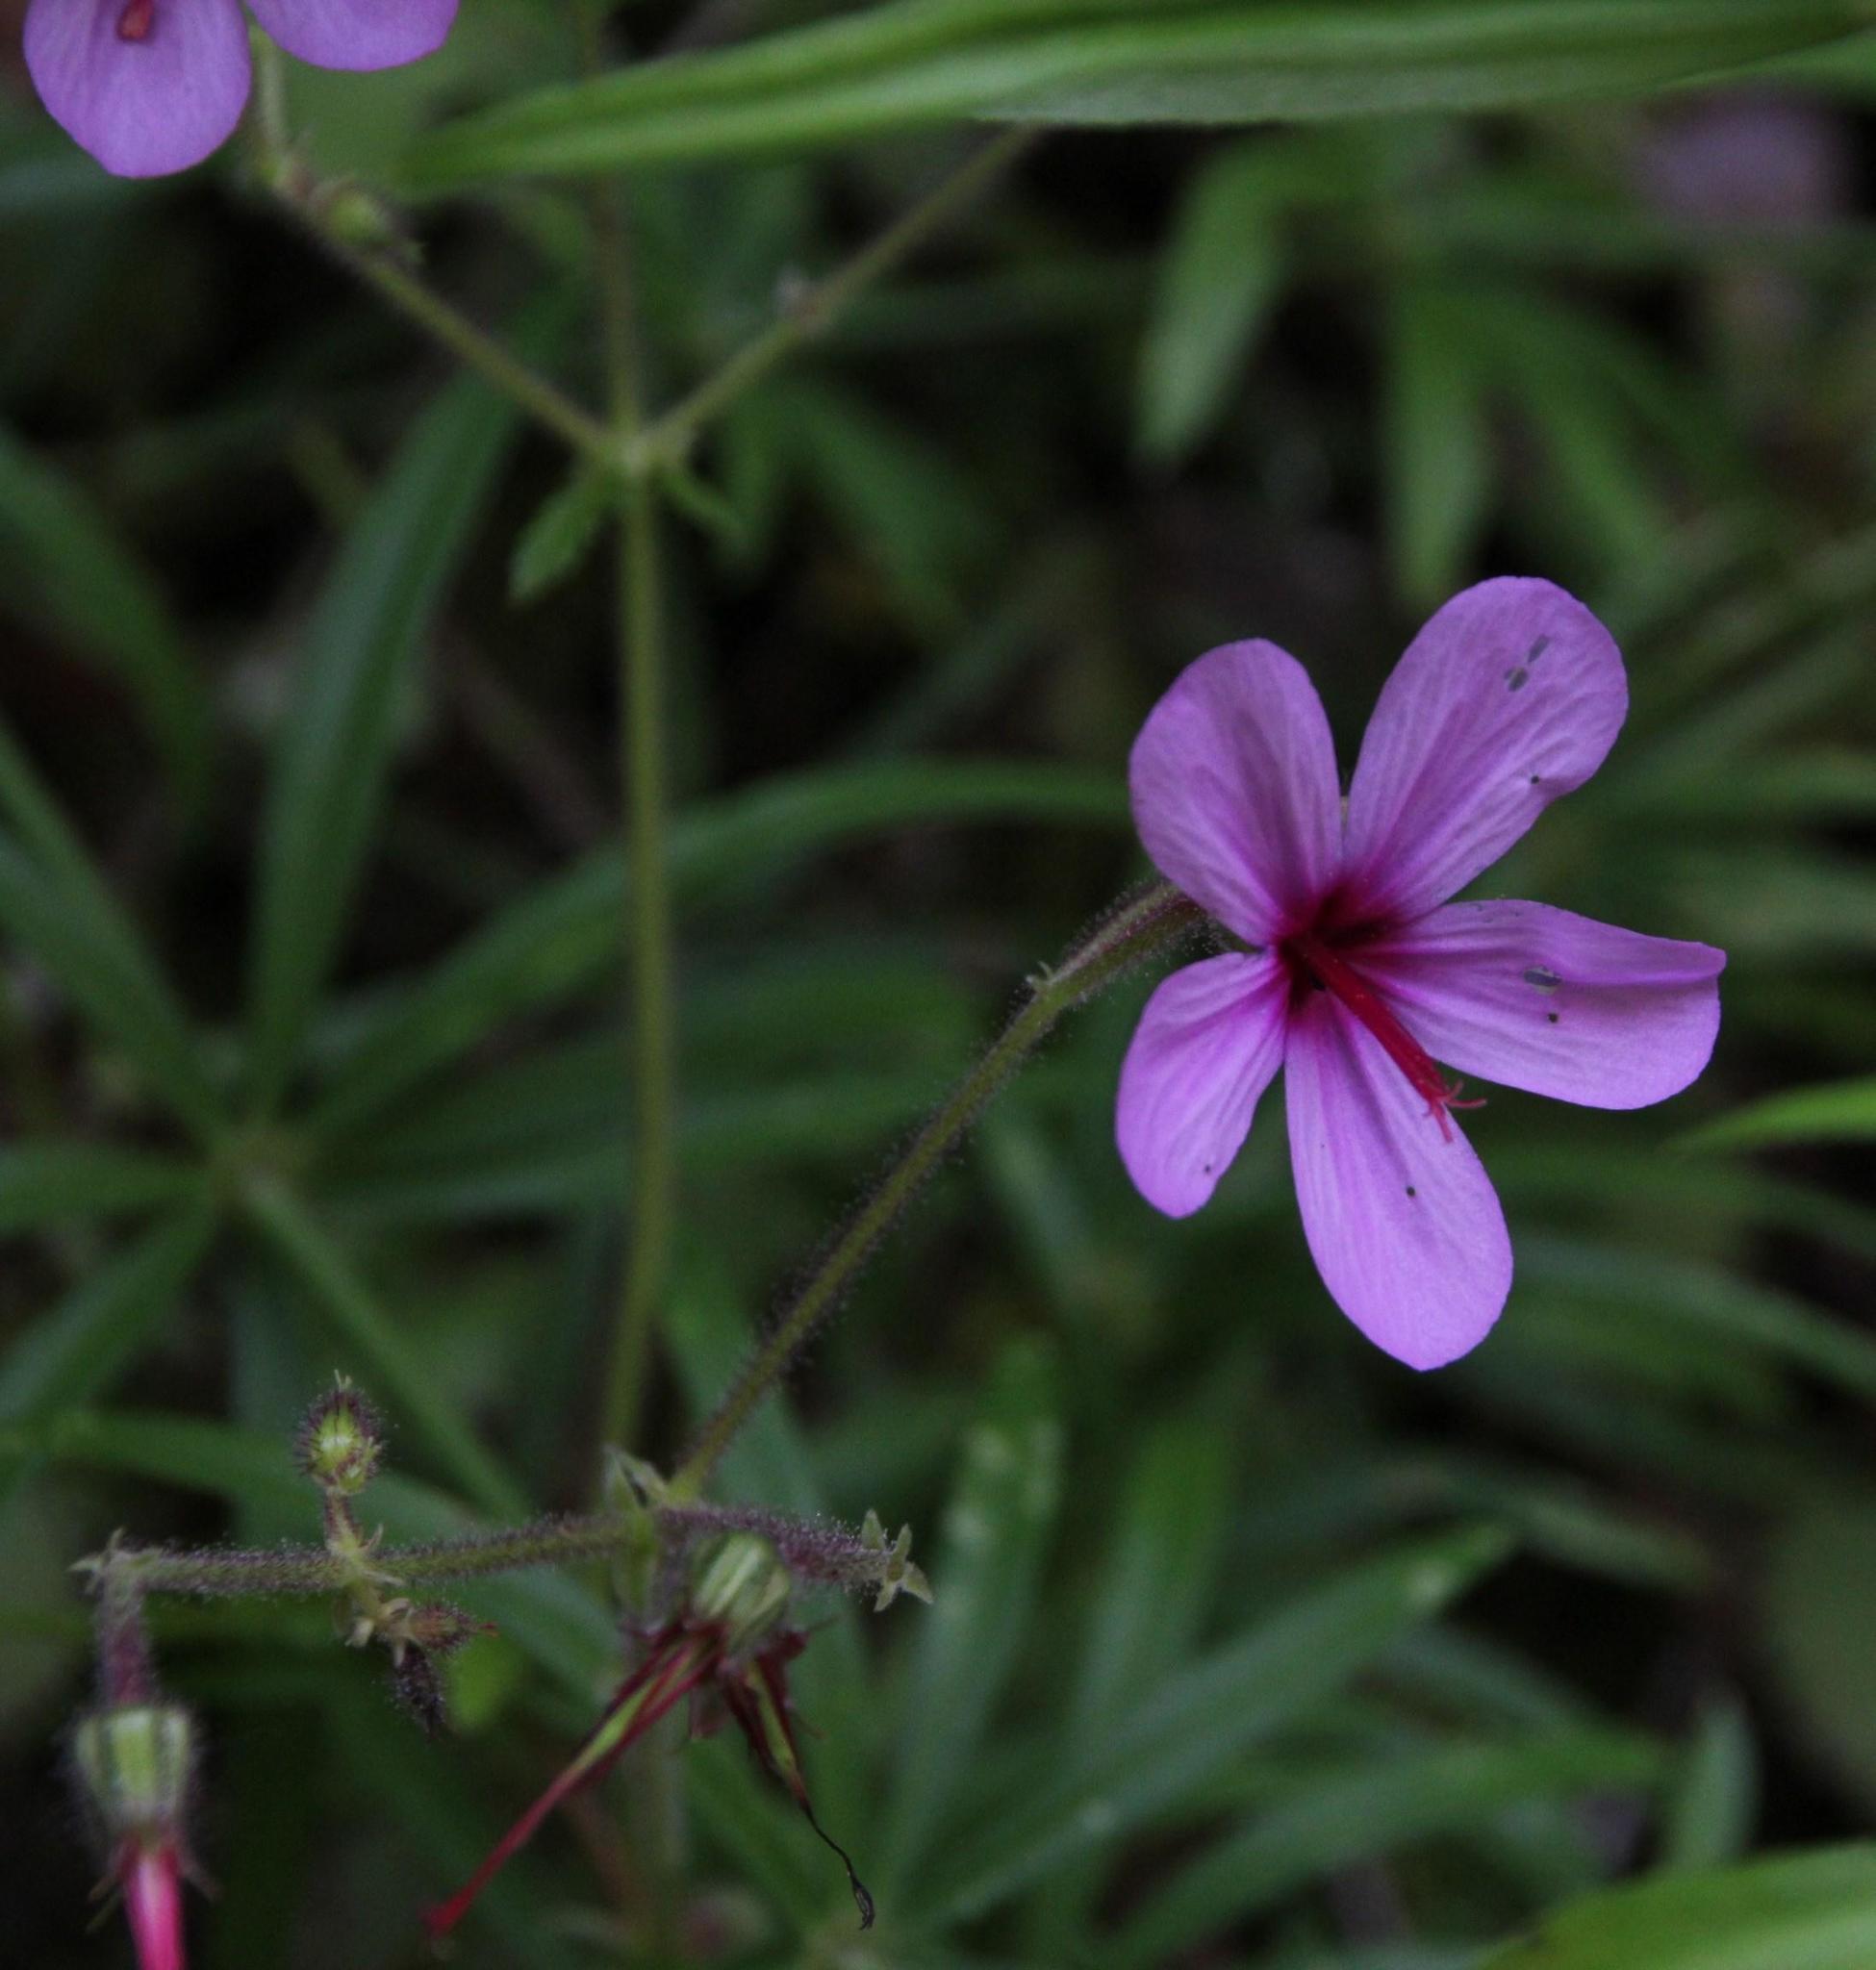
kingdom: Plantae
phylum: Tracheophyta
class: Magnoliopsida
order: Geraniales
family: Geraniaceae
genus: Geranium
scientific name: Geranium palmatum
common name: Canary island geranium
